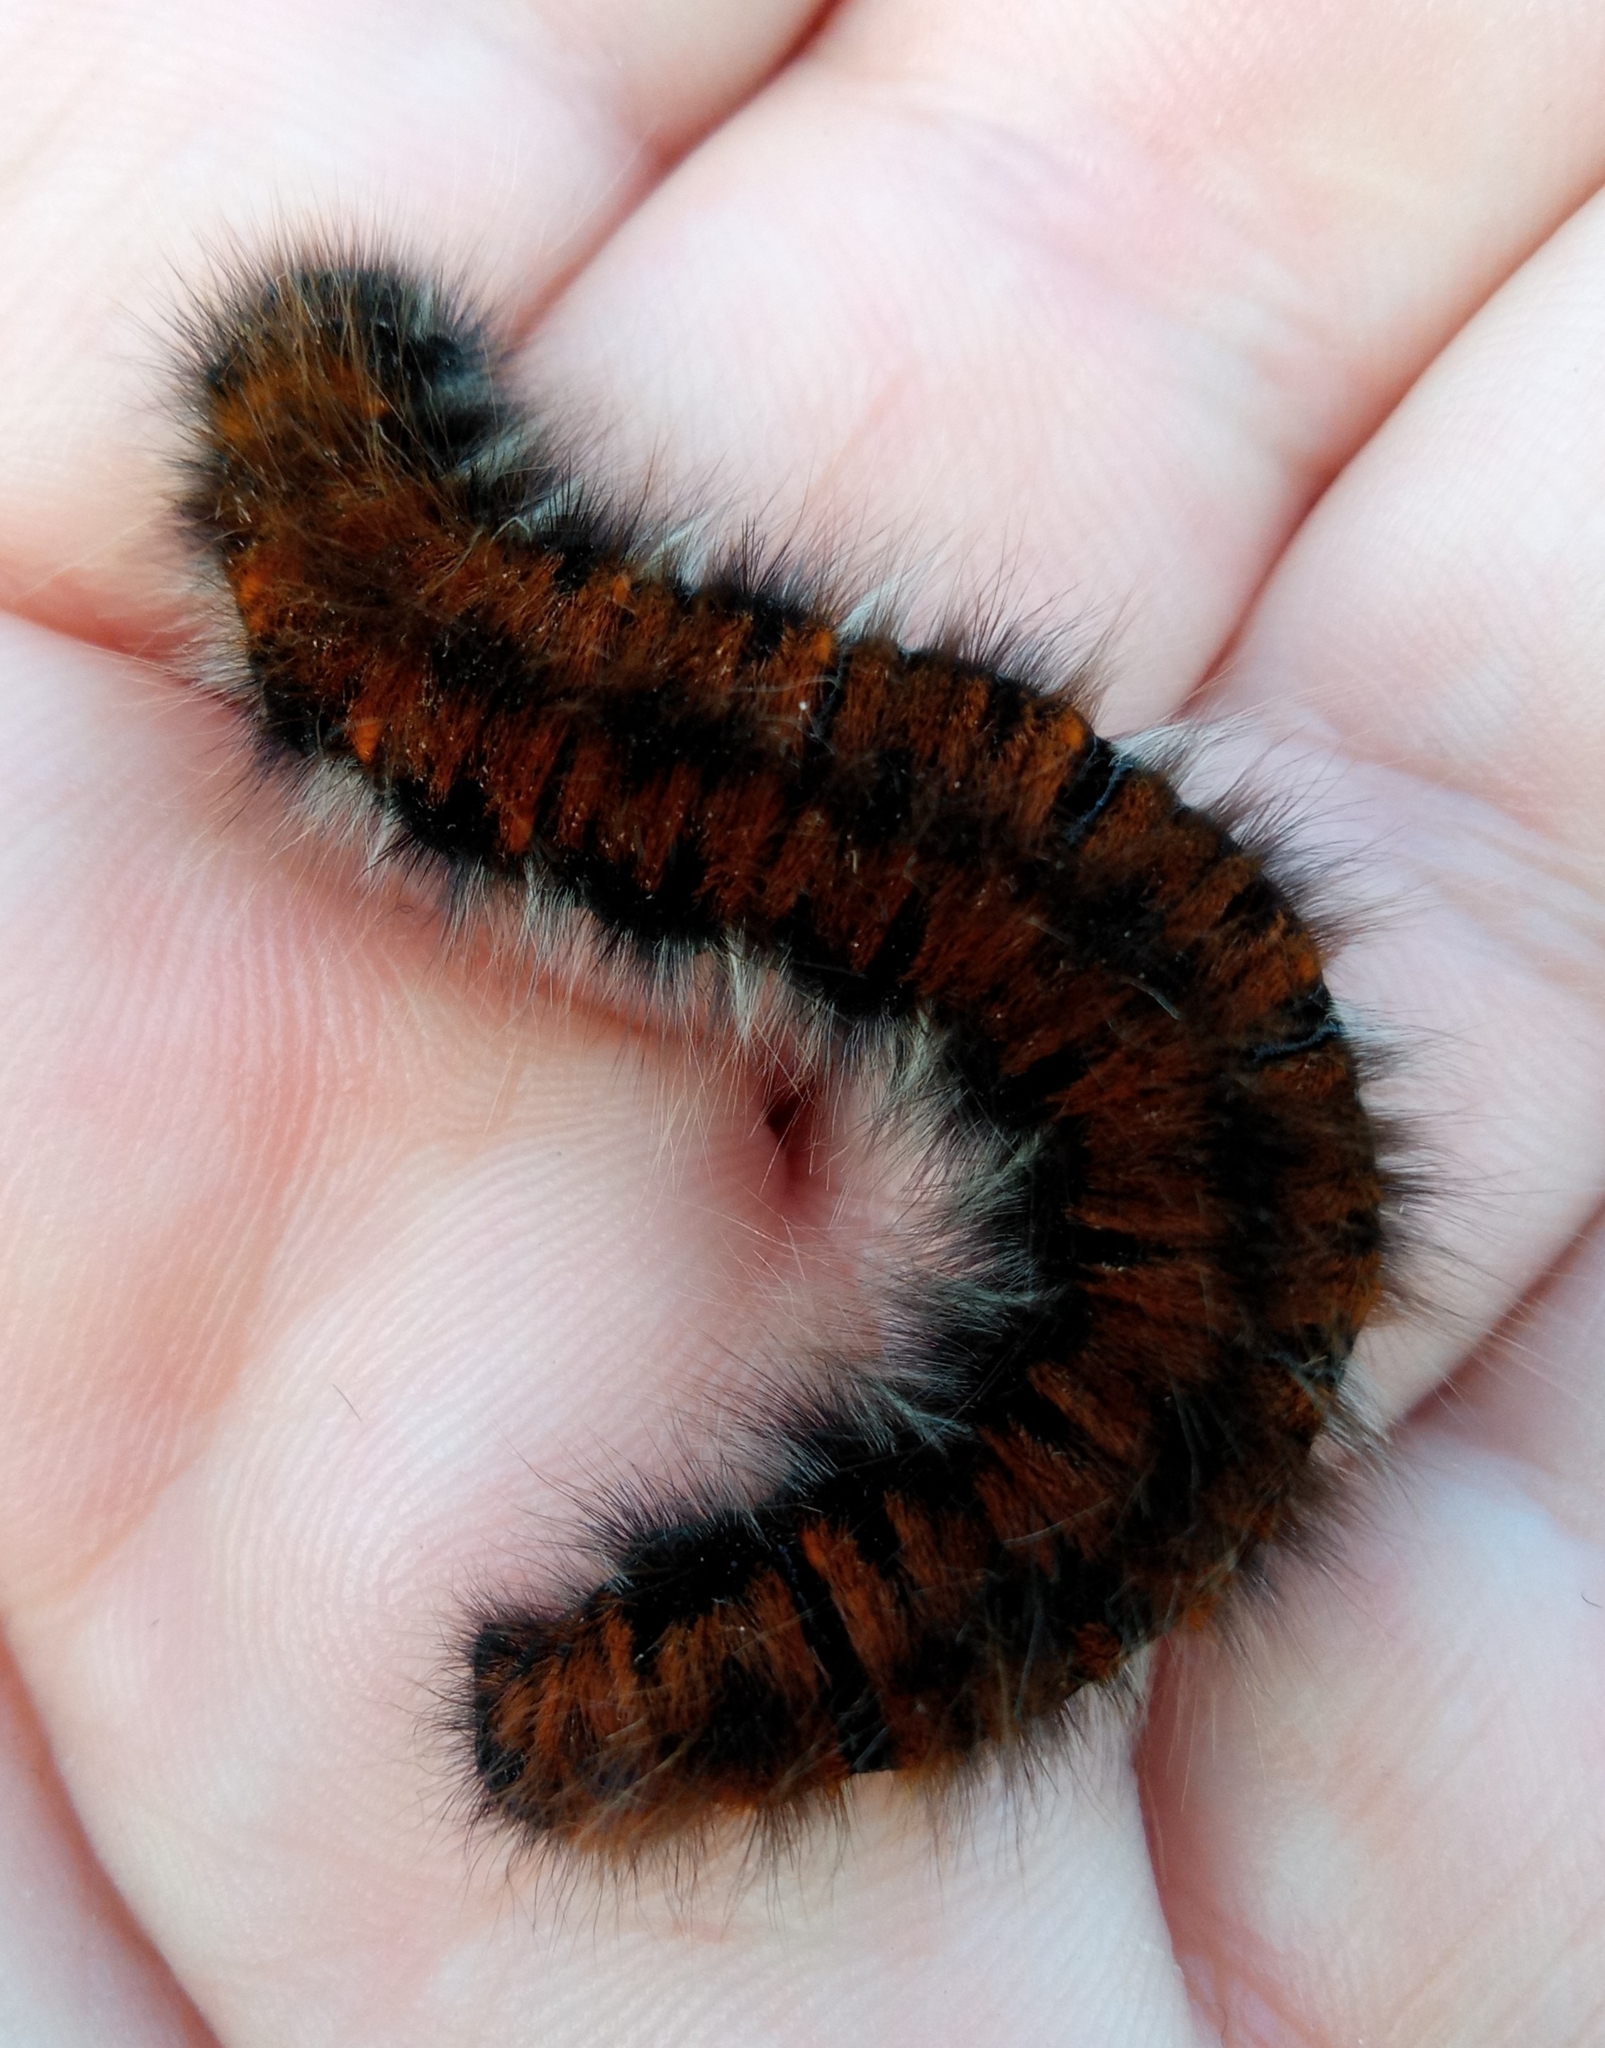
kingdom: Animalia
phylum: Arthropoda
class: Insecta
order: Lepidoptera
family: Lasiocampidae
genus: Macrothylacia
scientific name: Macrothylacia rubi
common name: Fox moth
